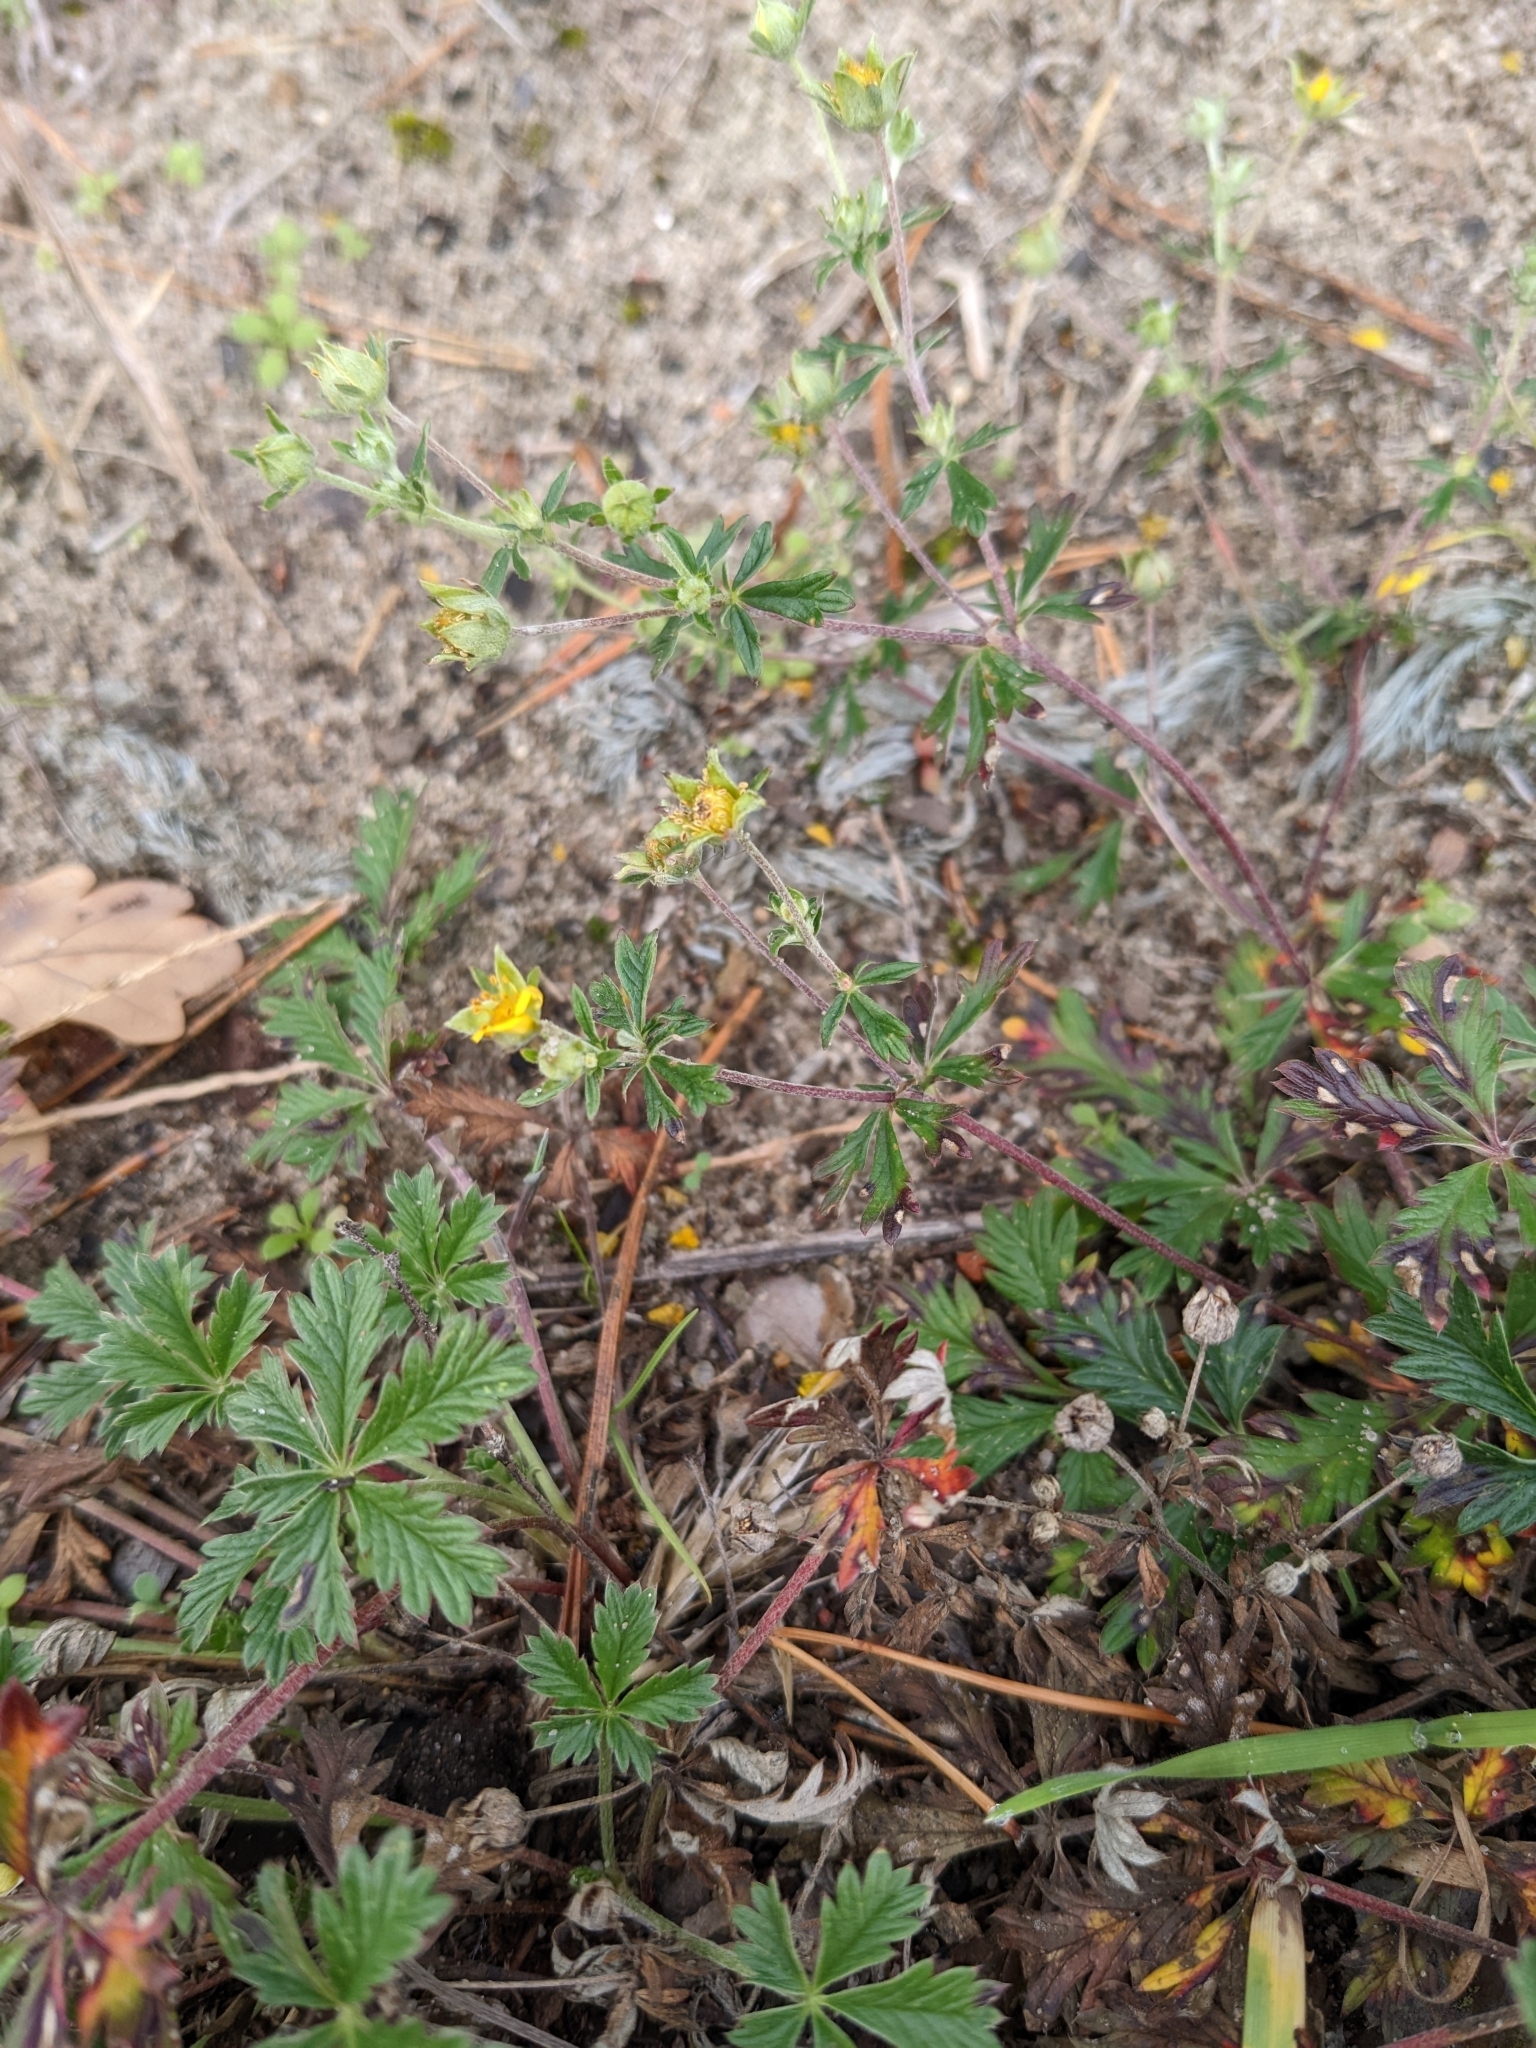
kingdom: Plantae
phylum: Tracheophyta
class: Magnoliopsida
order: Rosales
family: Rosaceae
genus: Potentilla
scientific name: Potentilla argentea
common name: Hoary cinquefoil
